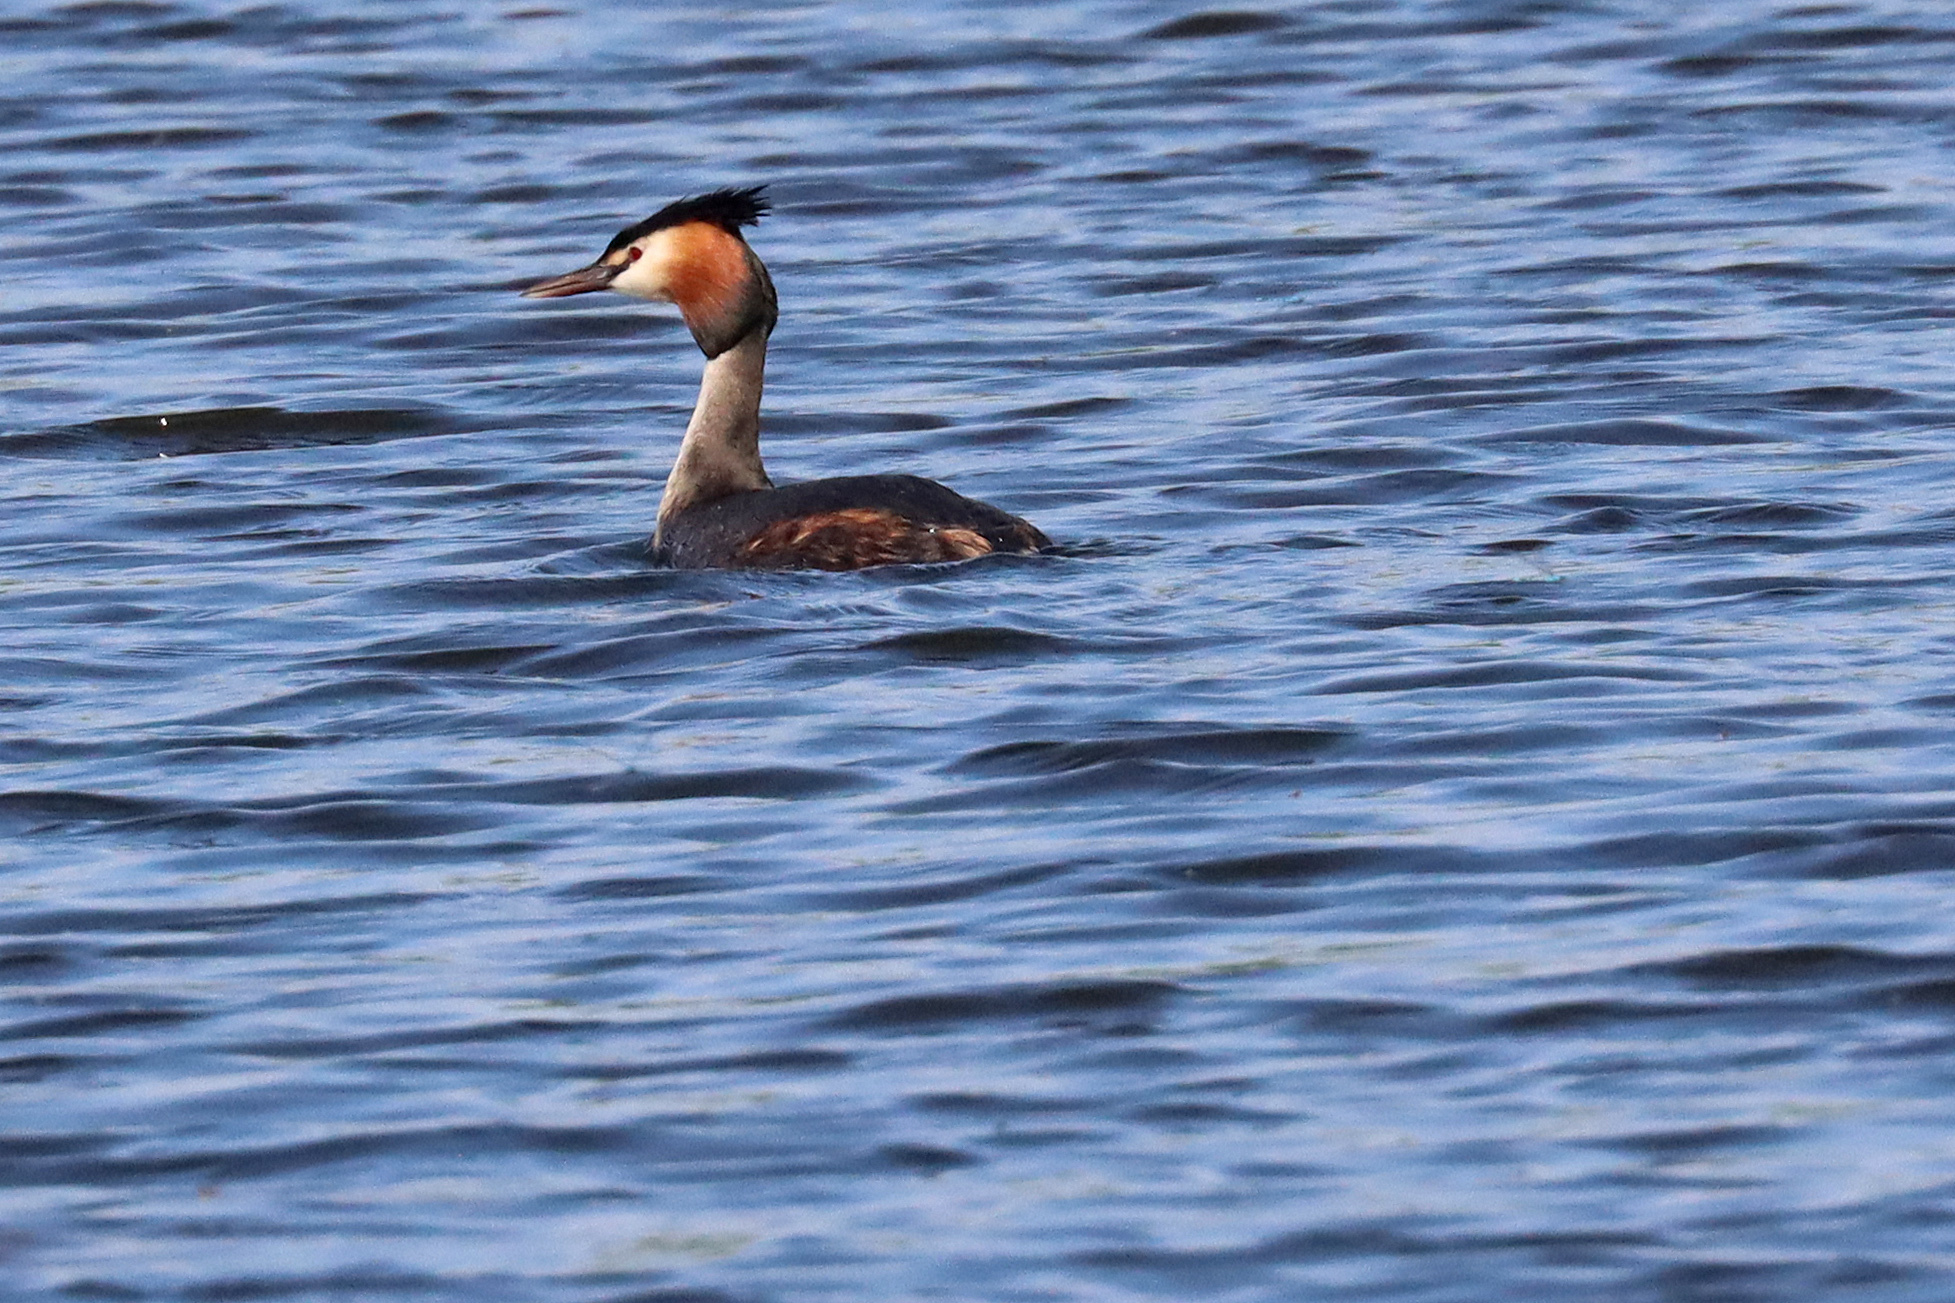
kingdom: Animalia
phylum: Chordata
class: Aves
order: Podicipediformes
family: Podicipedidae
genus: Podiceps
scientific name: Podiceps cristatus
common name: Great crested grebe
